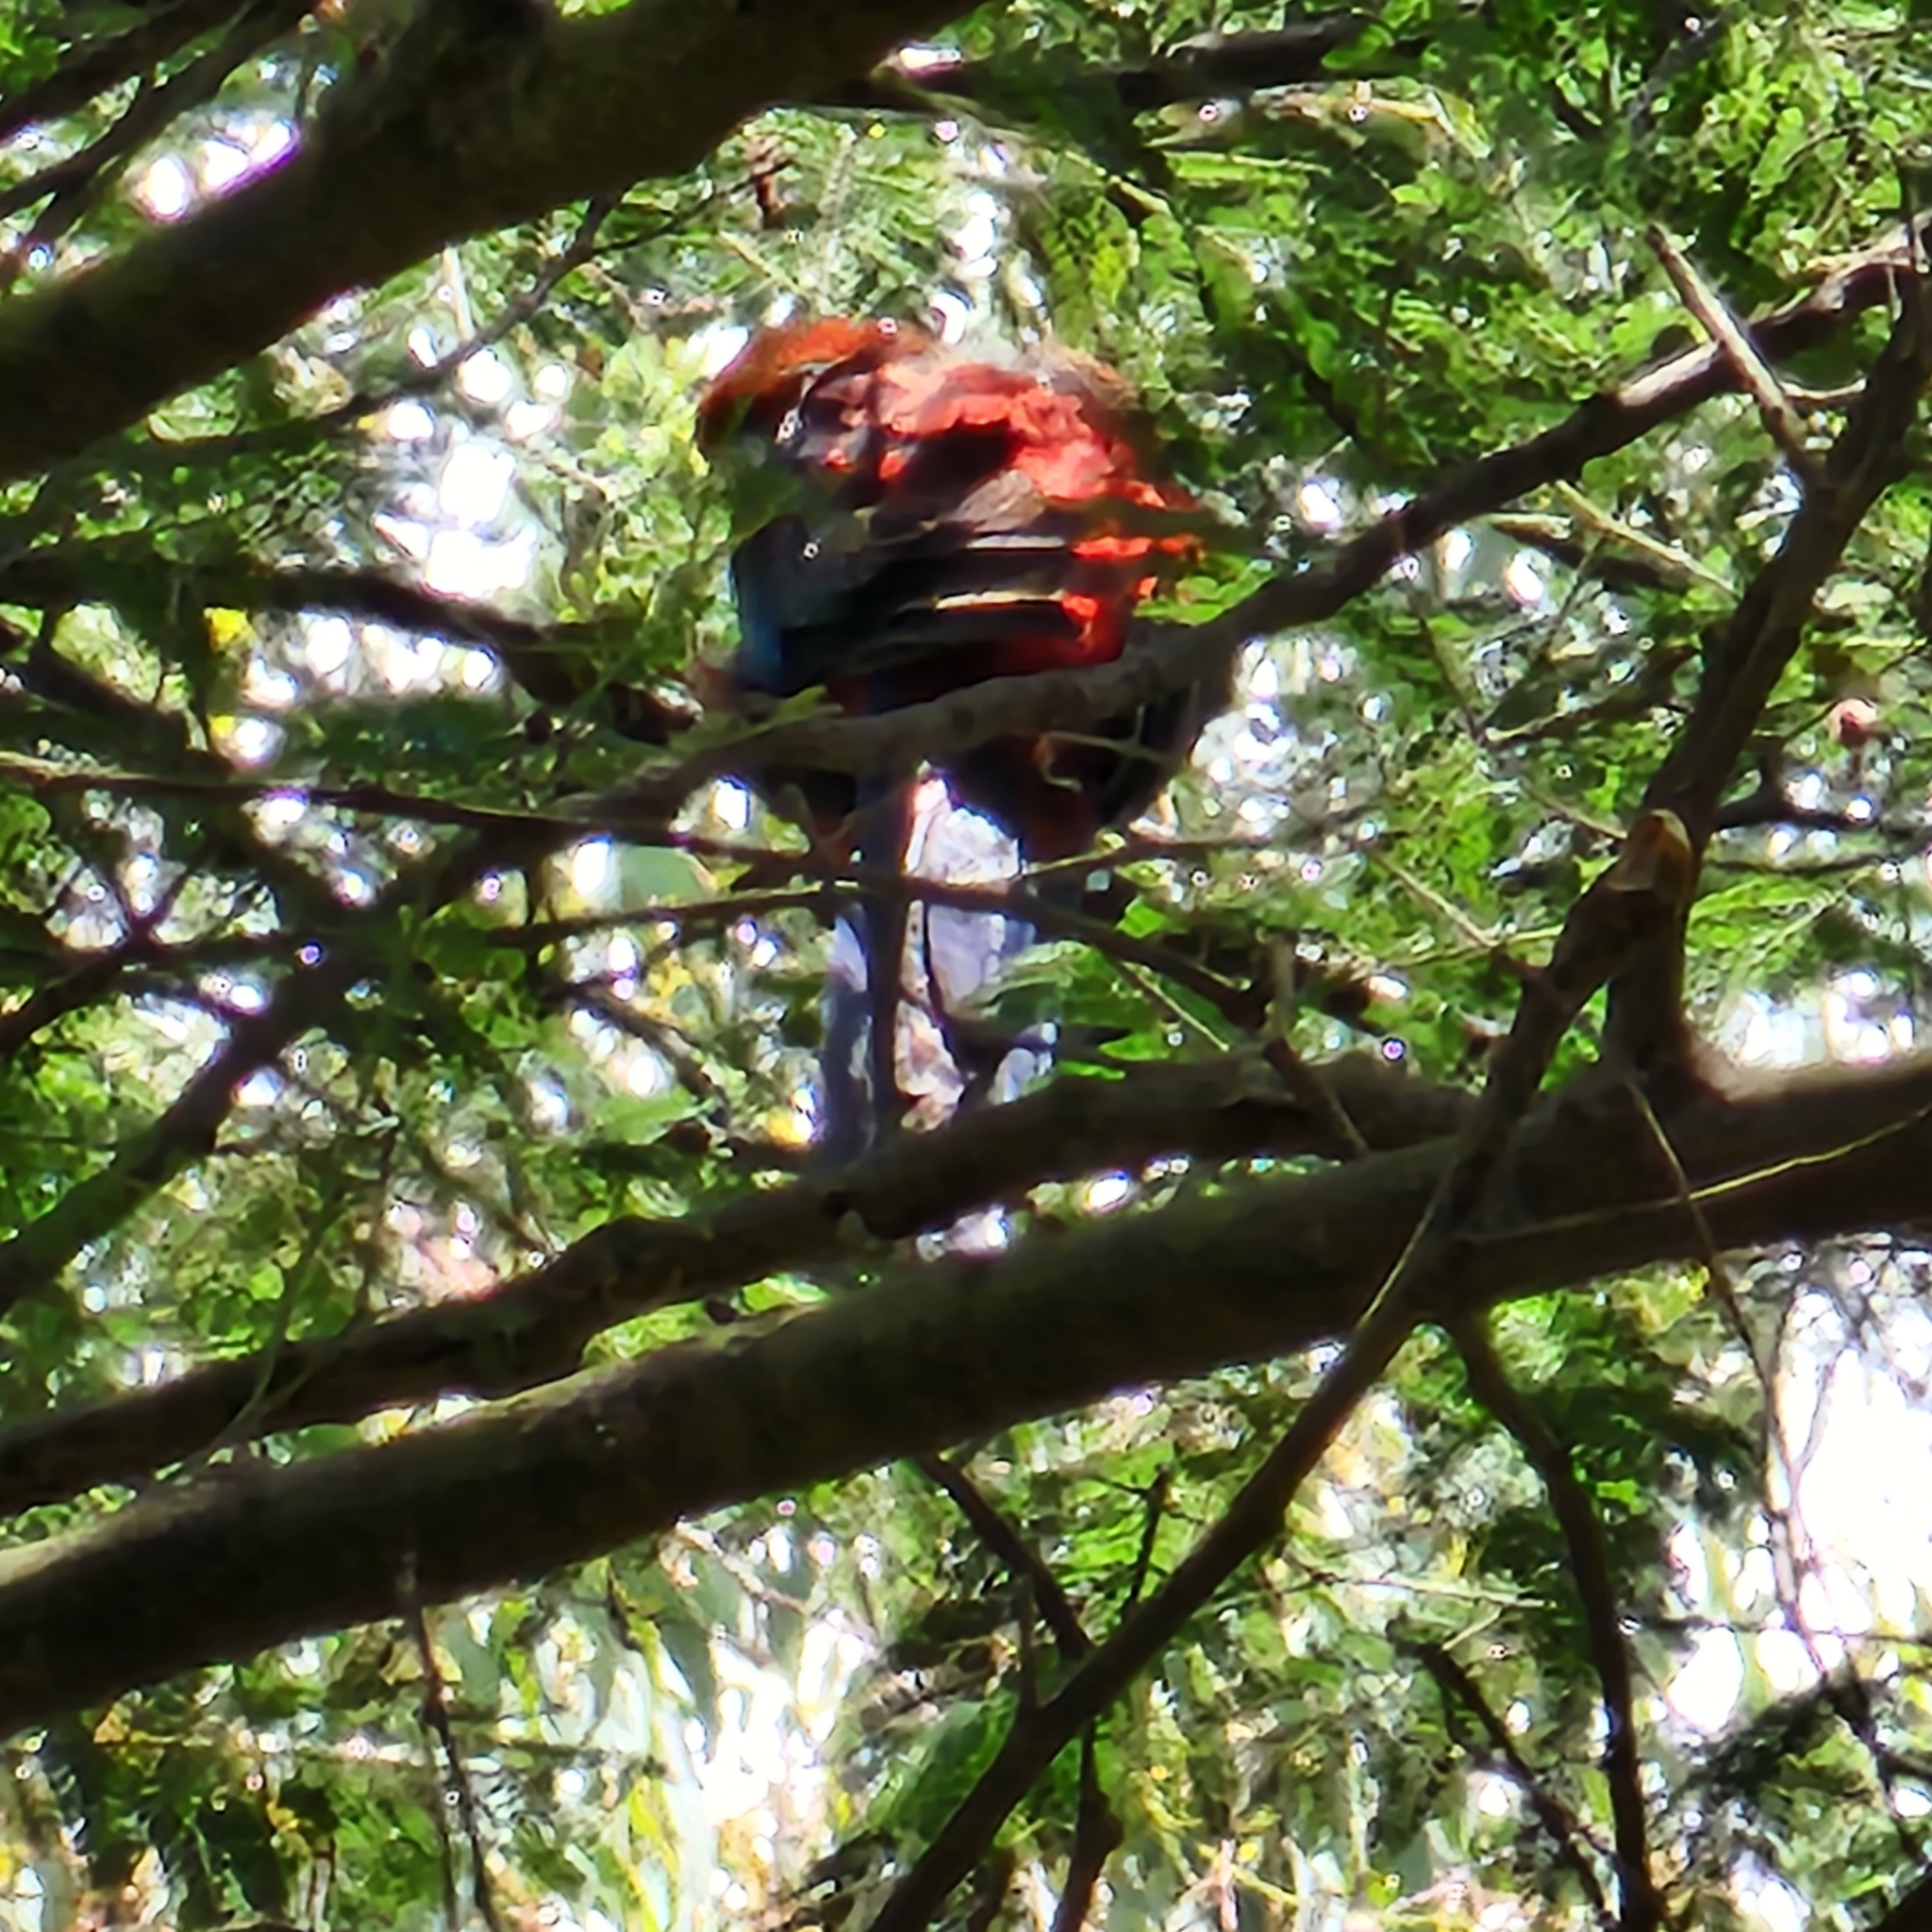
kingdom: Animalia
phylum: Chordata
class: Aves
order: Psittaciformes
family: Psittacidae
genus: Platycercus
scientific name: Platycercus elegans
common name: Crimson rosella
